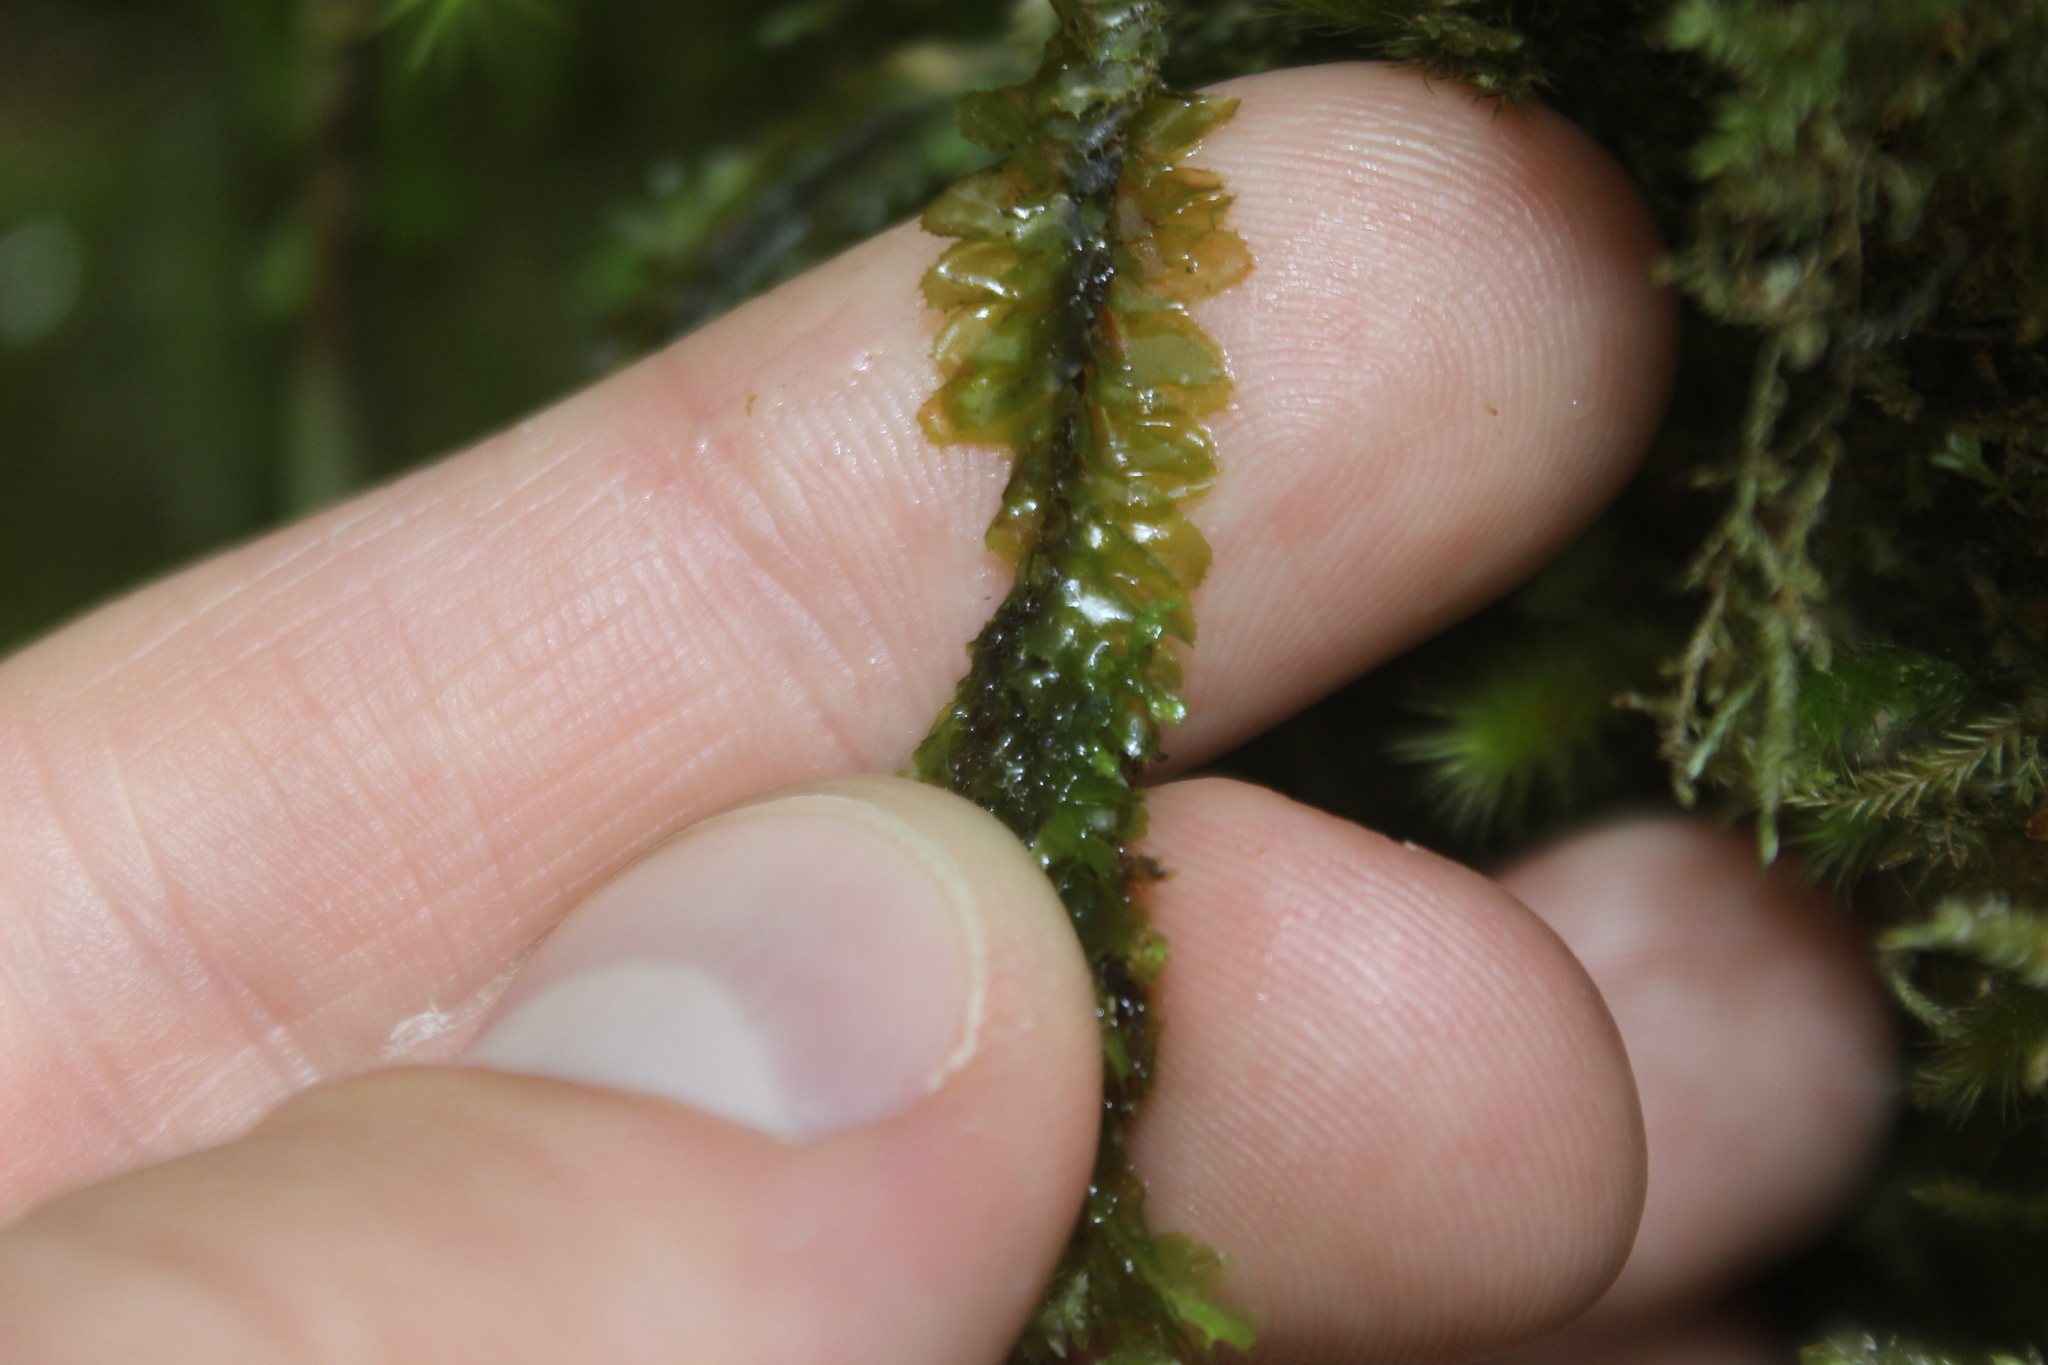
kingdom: Plantae
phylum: Marchantiophyta
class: Jungermanniopsida
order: Jungermanniales
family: Plagiochilaceae
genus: Plagiochila
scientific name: Plagiochila trispicata
